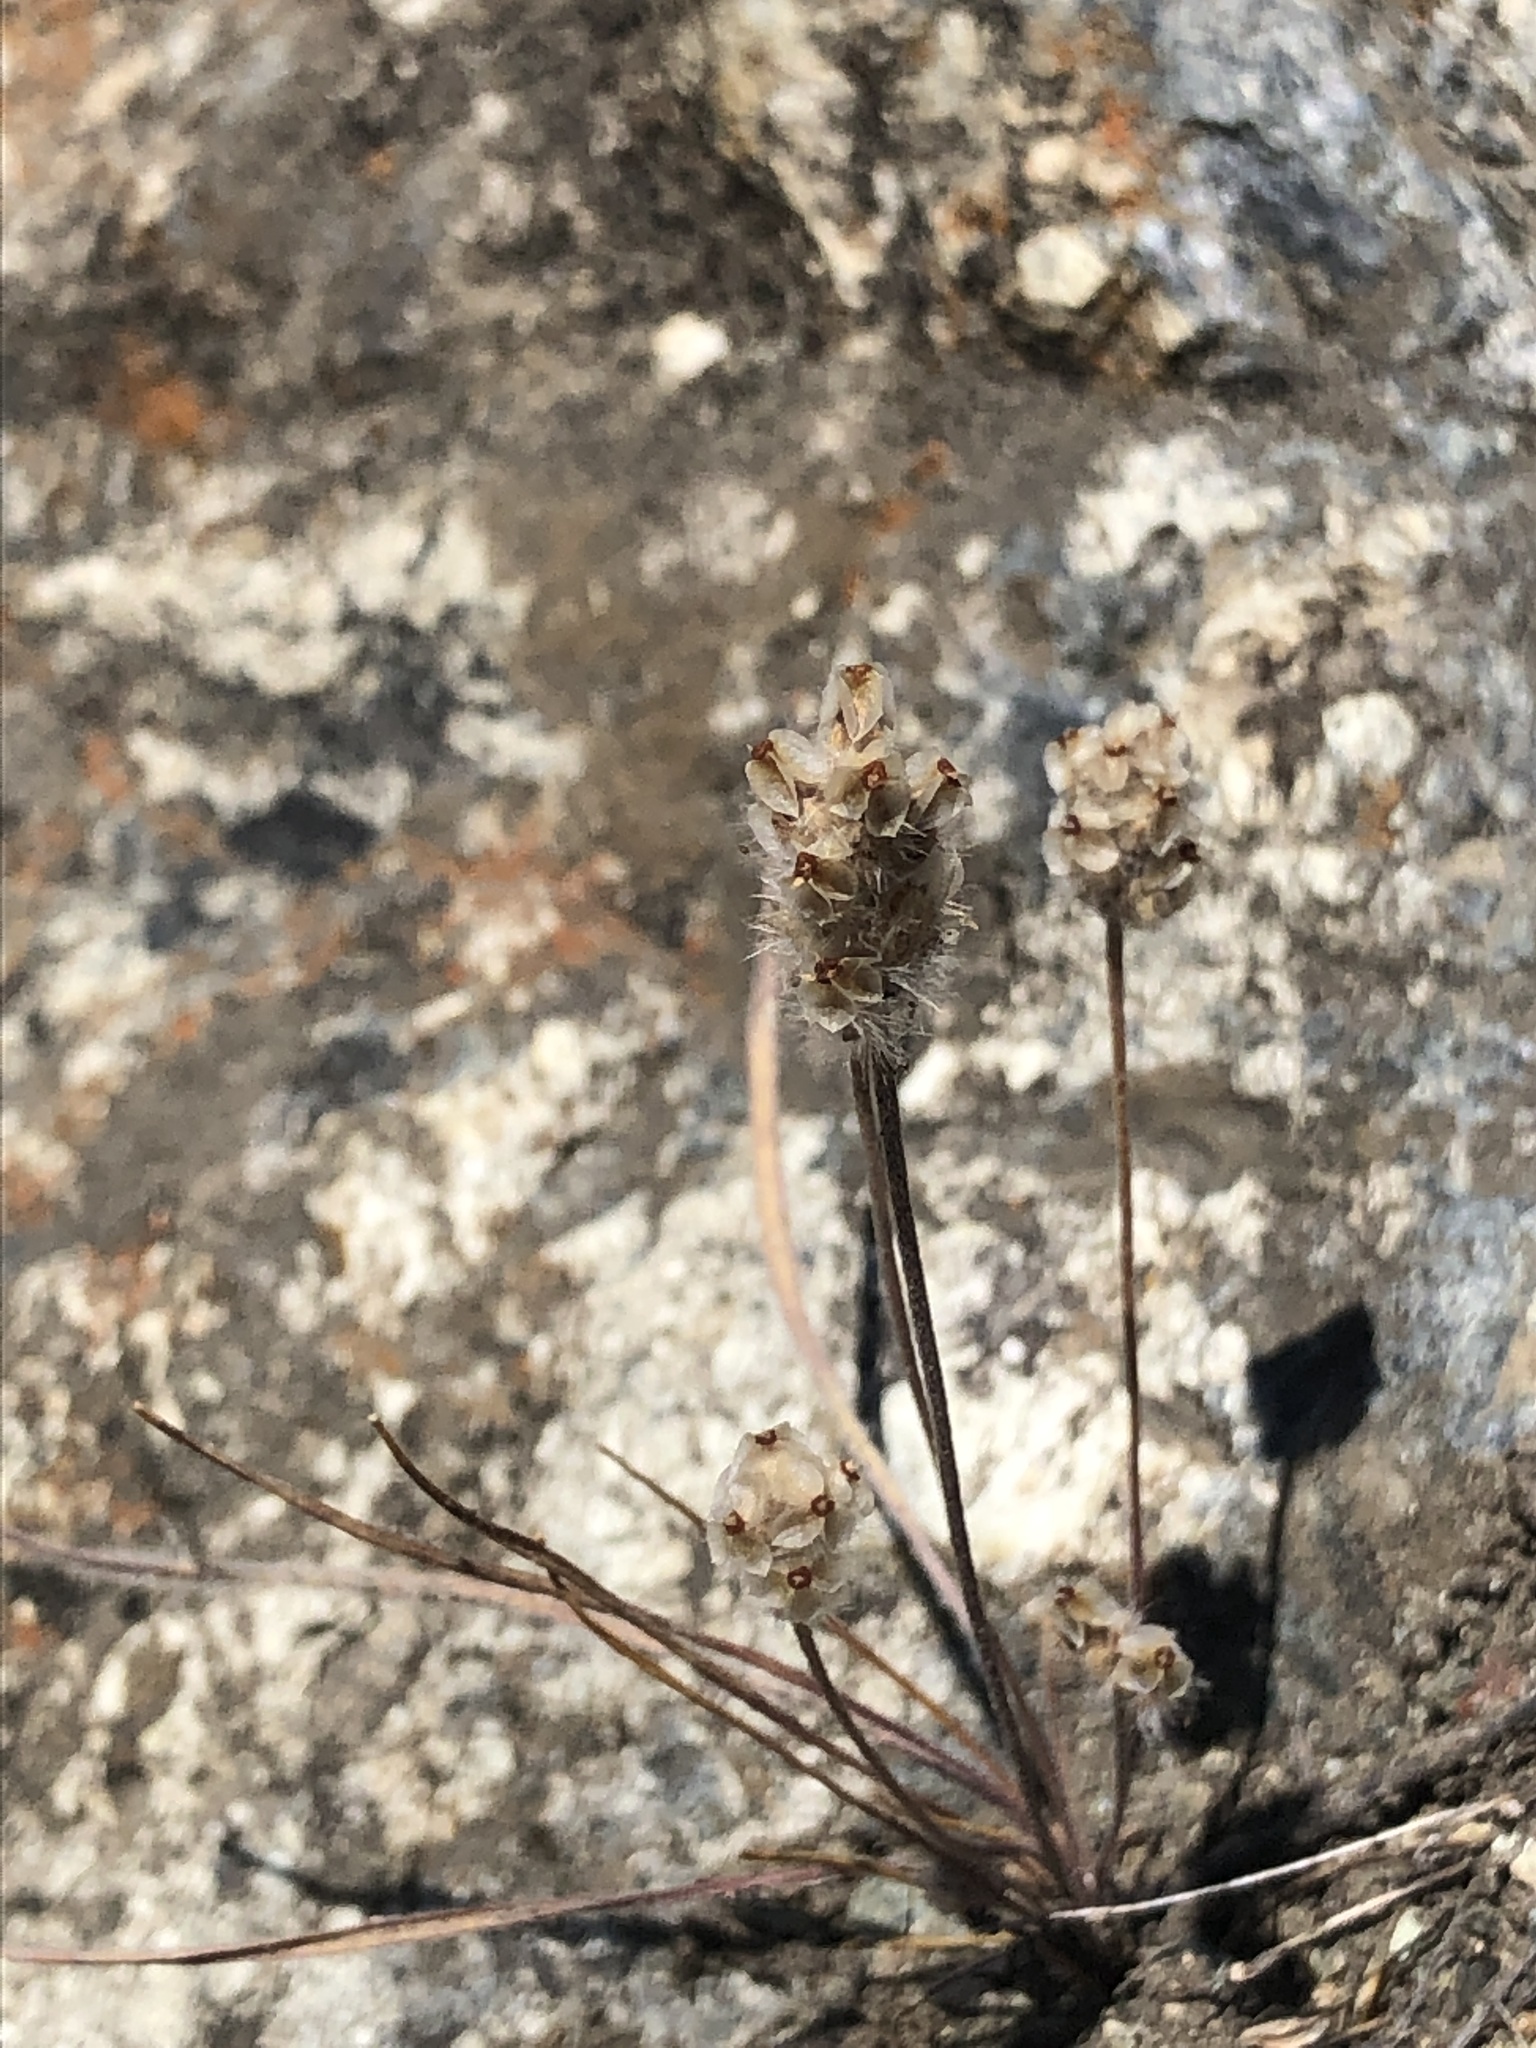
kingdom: Plantae
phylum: Tracheophyta
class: Magnoliopsida
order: Lamiales
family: Plantaginaceae
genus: Plantago
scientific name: Plantago erecta
